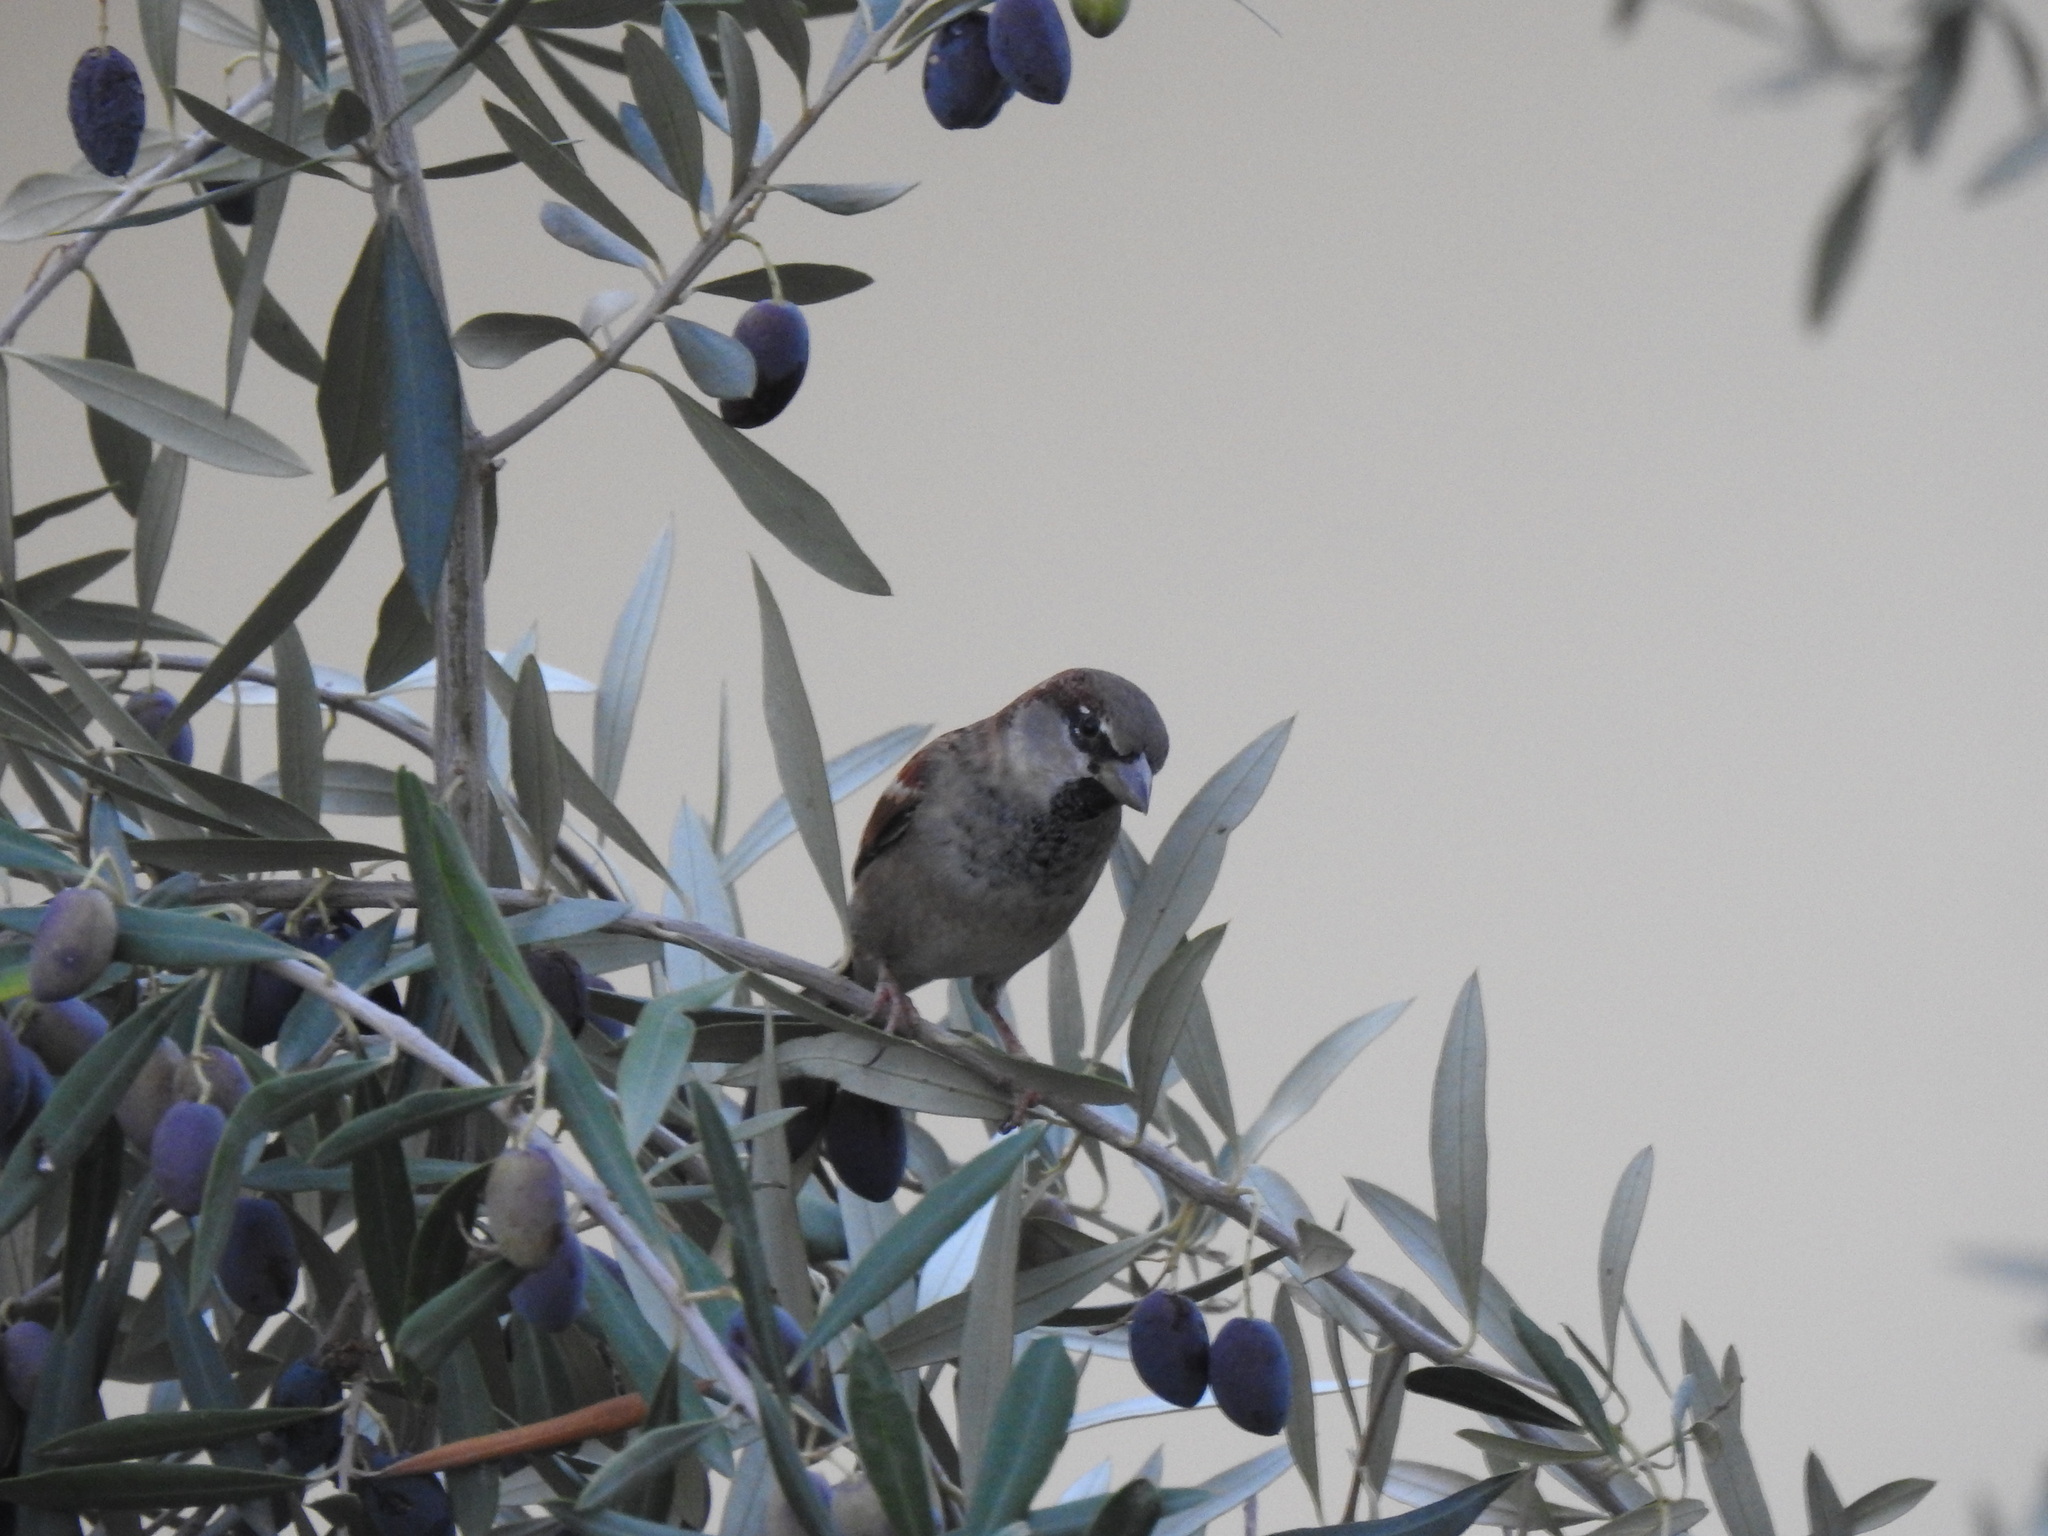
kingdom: Animalia
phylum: Chordata
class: Aves
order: Passeriformes
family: Passeridae
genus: Passer
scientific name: Passer domesticus
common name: House sparrow
